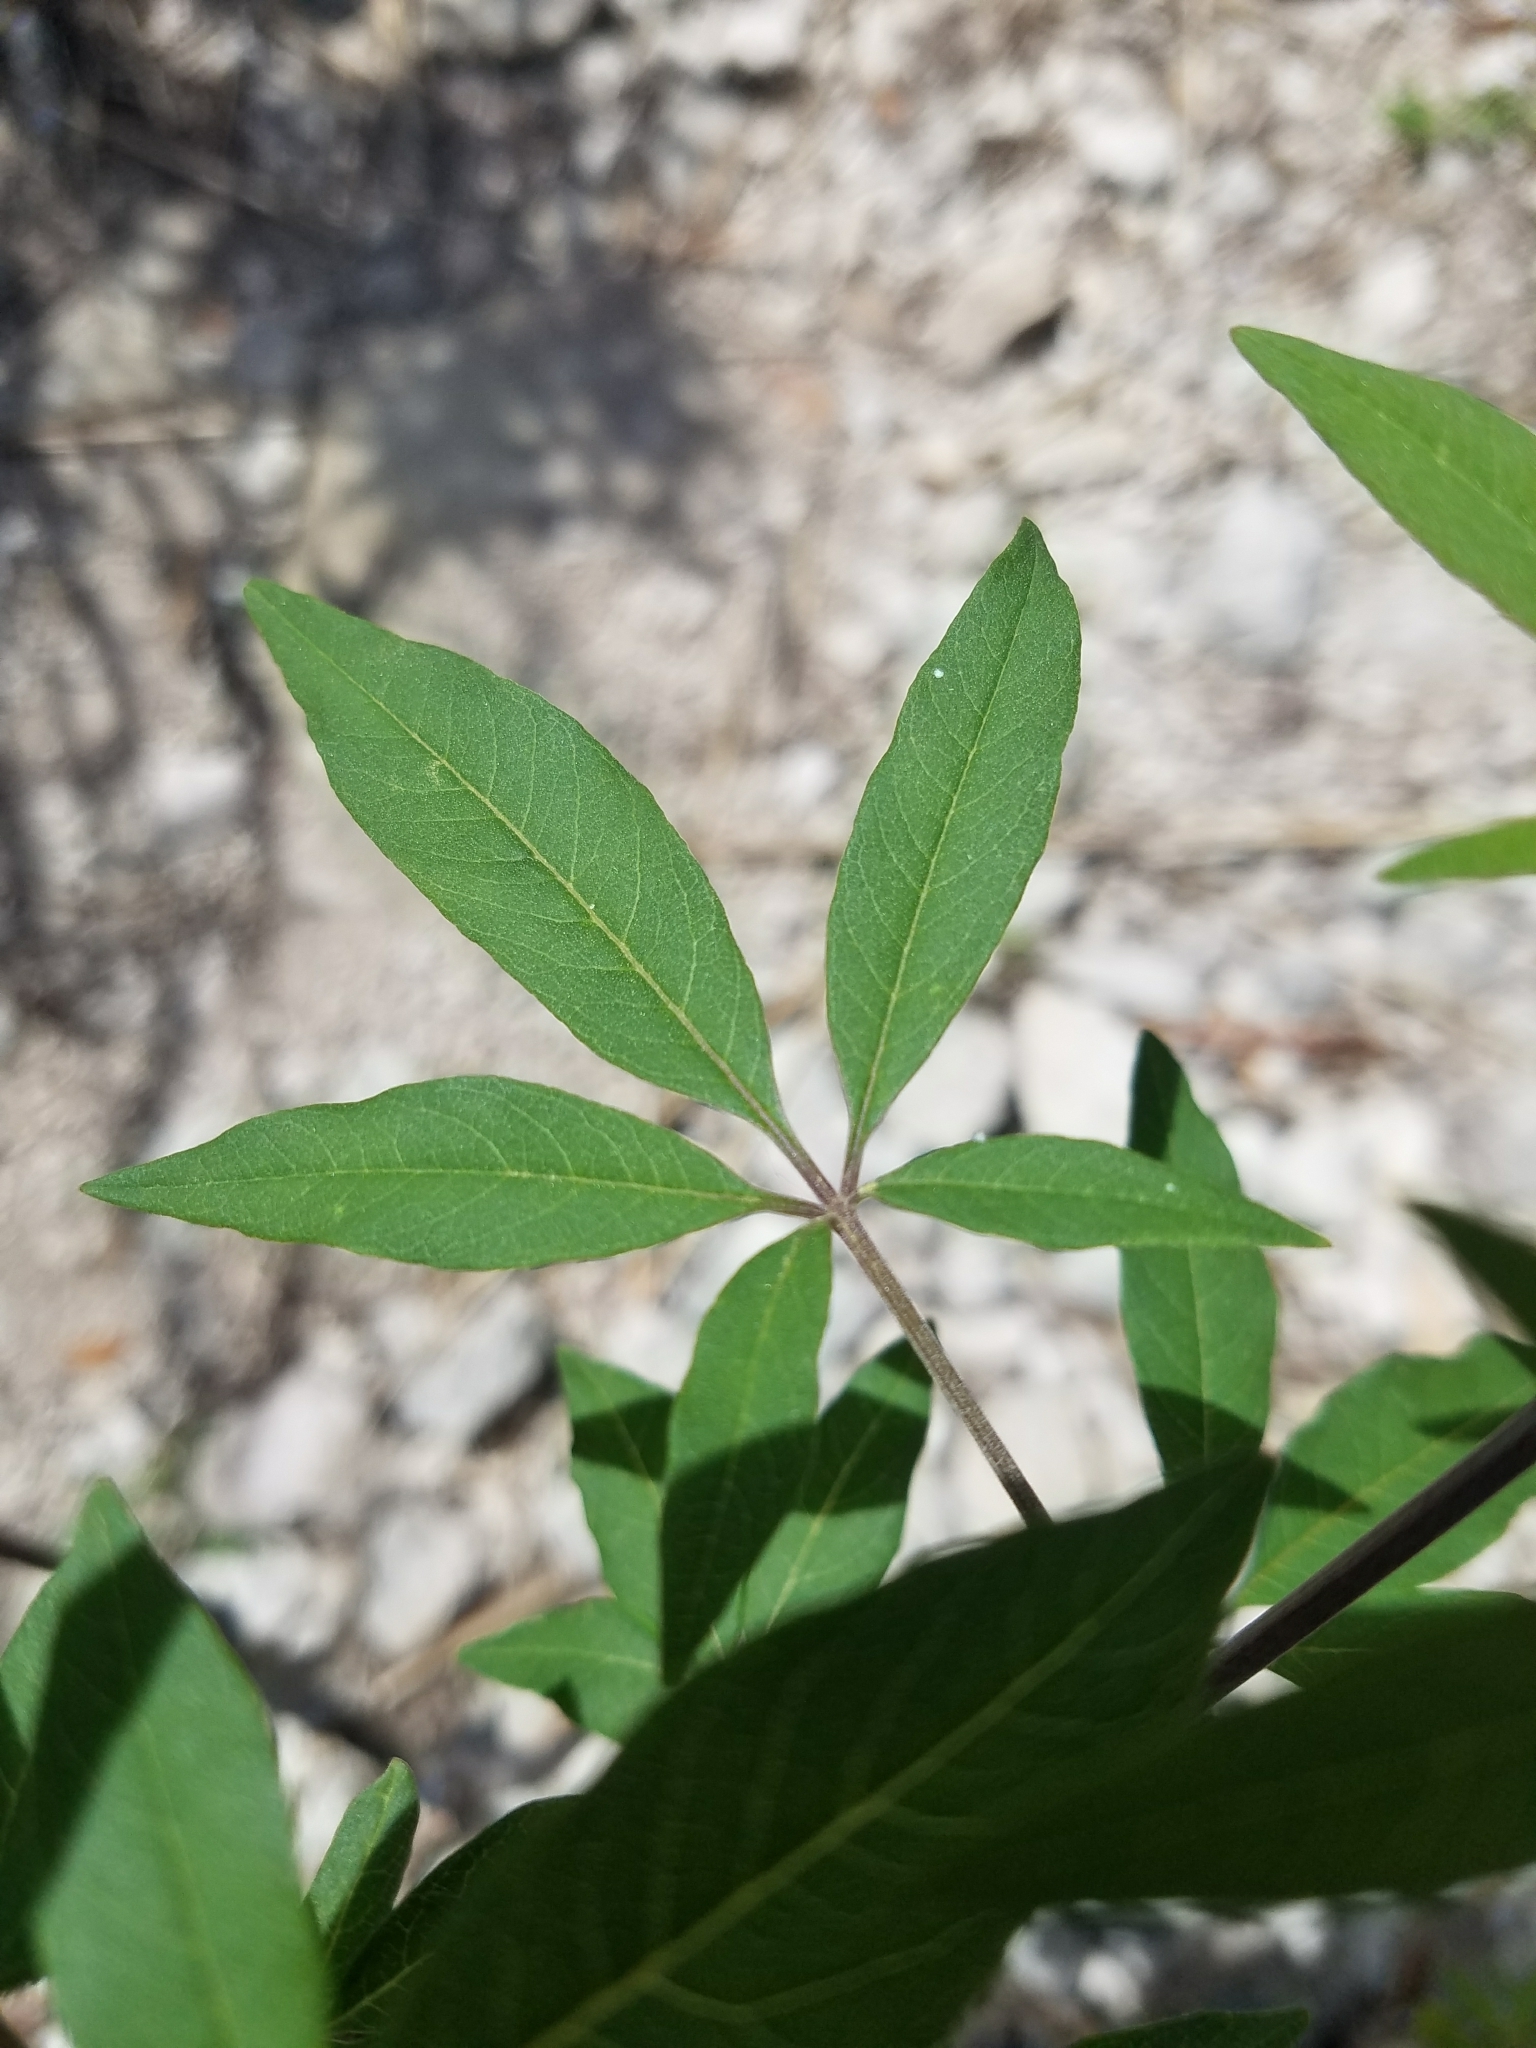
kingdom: Plantae
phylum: Tracheophyta
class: Magnoliopsida
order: Lamiales
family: Lamiaceae
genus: Vitex
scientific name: Vitex agnus-castus
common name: Chasteberry
